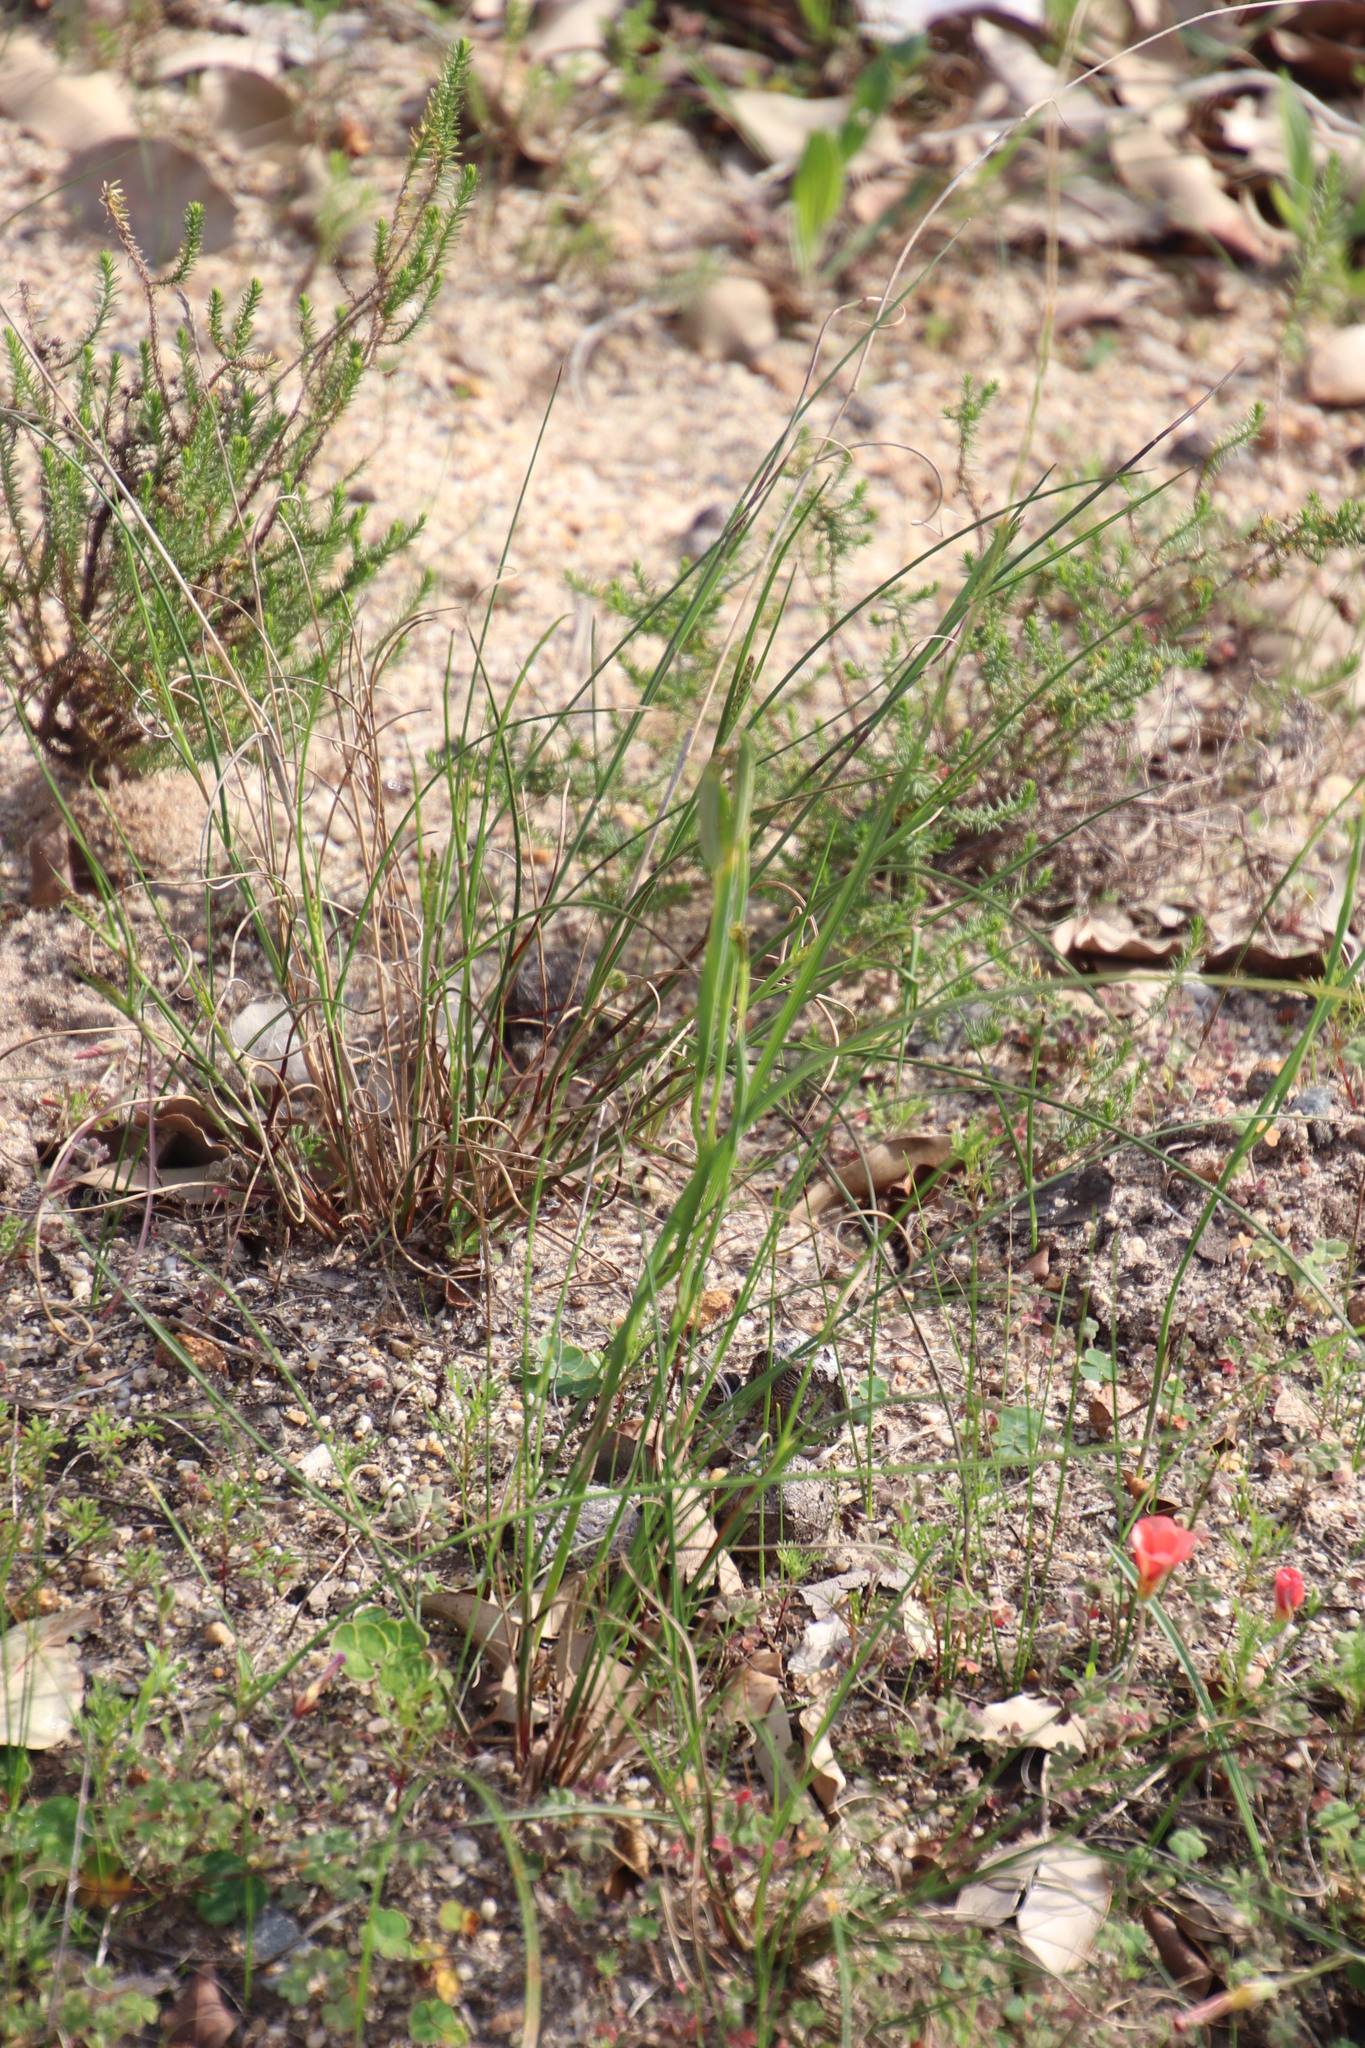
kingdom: Plantae
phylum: Tracheophyta
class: Liliopsida
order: Asparagales
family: Iridaceae
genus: Moraea
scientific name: Moraea collina
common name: Cape-tulip
